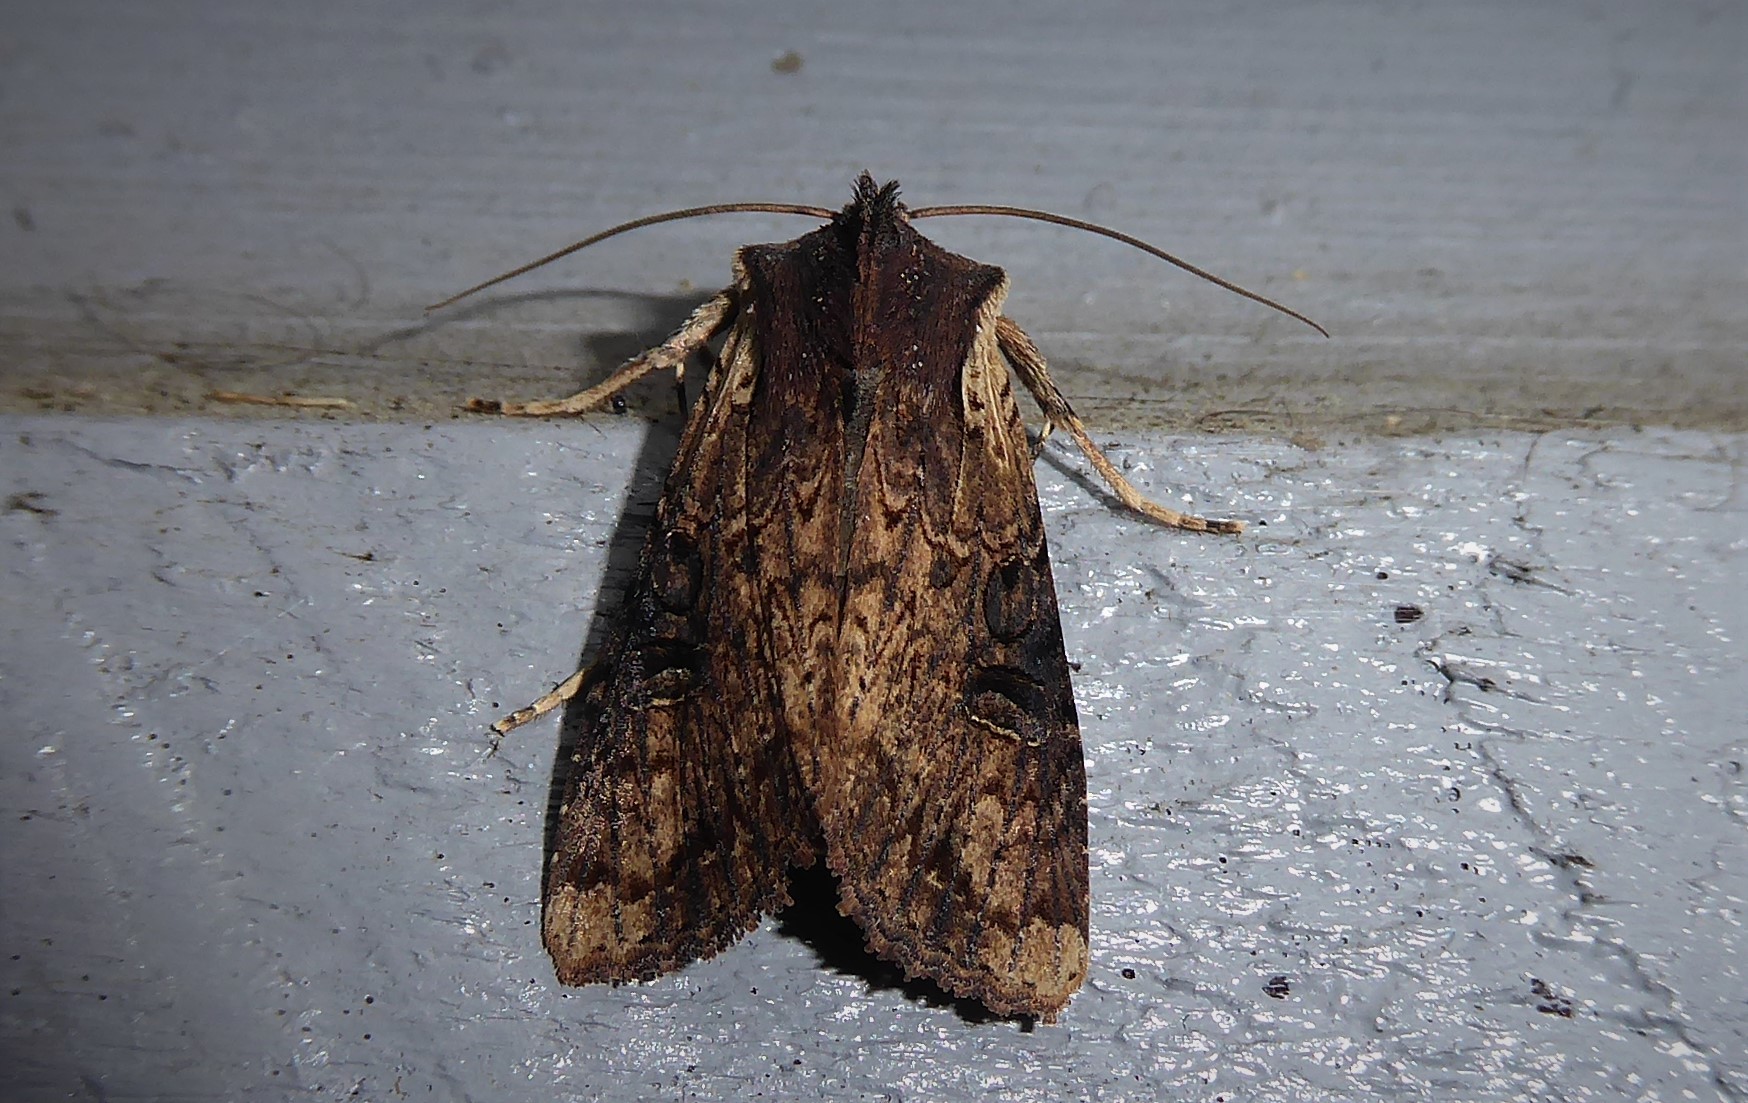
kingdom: Animalia
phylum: Arthropoda
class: Insecta
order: Lepidoptera
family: Noctuidae
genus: Ichneutica
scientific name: Ichneutica omoplaca
